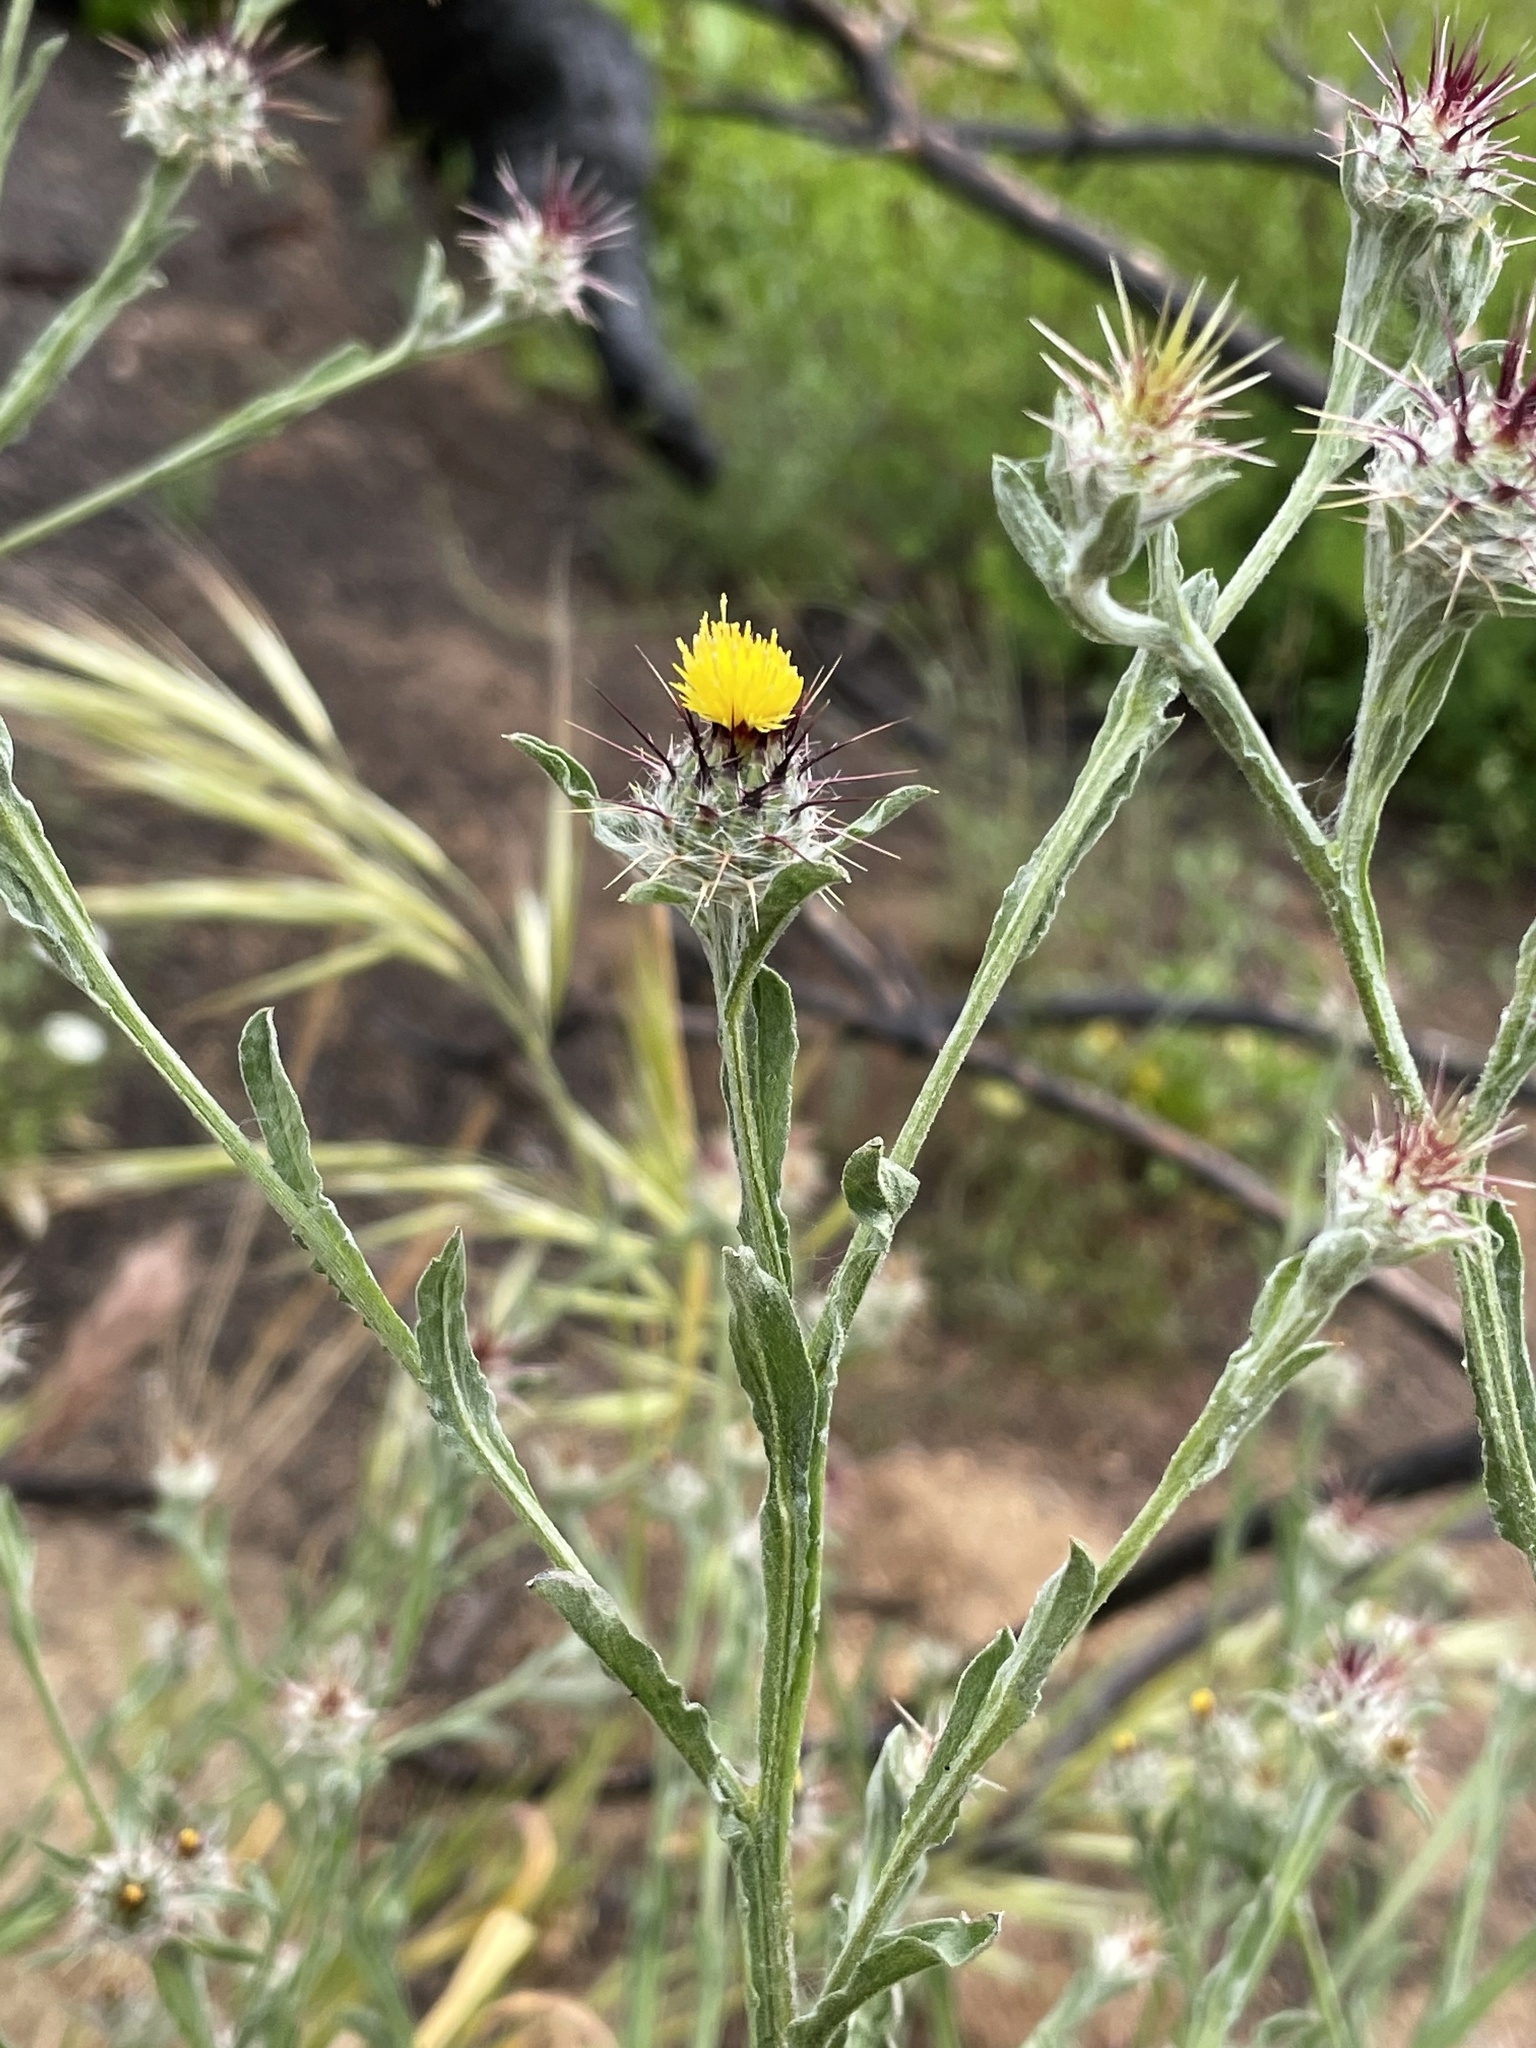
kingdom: Plantae
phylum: Tracheophyta
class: Magnoliopsida
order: Asterales
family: Asteraceae
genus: Centaurea
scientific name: Centaurea melitensis
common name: Maltese star-thistle
